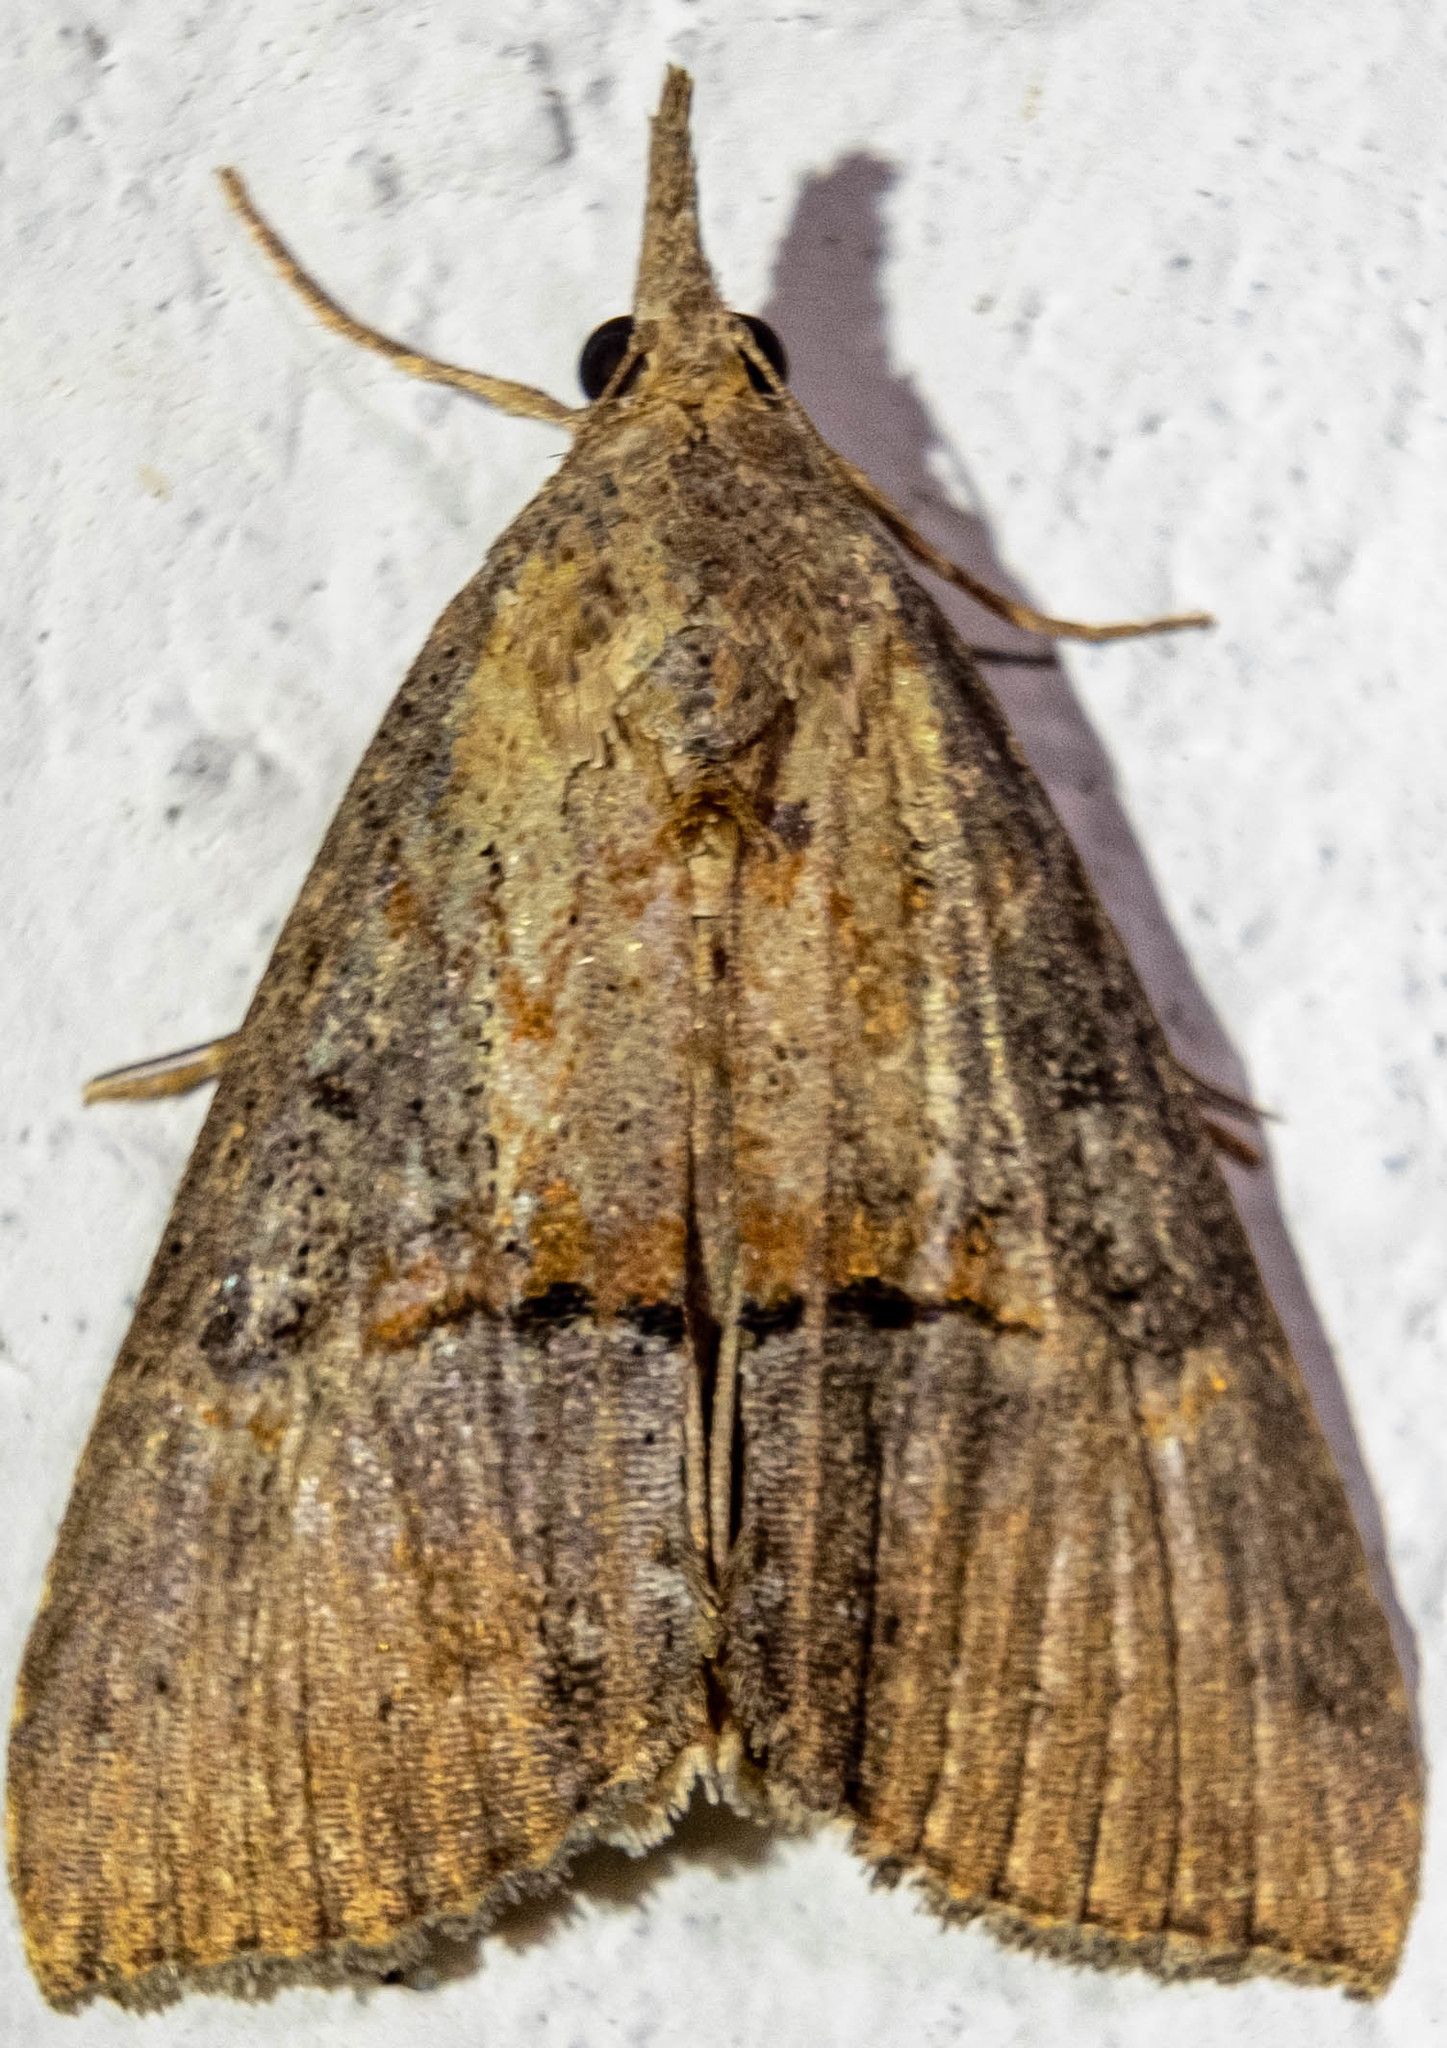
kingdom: Animalia
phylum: Arthropoda
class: Insecta
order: Lepidoptera
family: Erebidae
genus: Hypena
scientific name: Hypena scabra
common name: Green cloverworm
